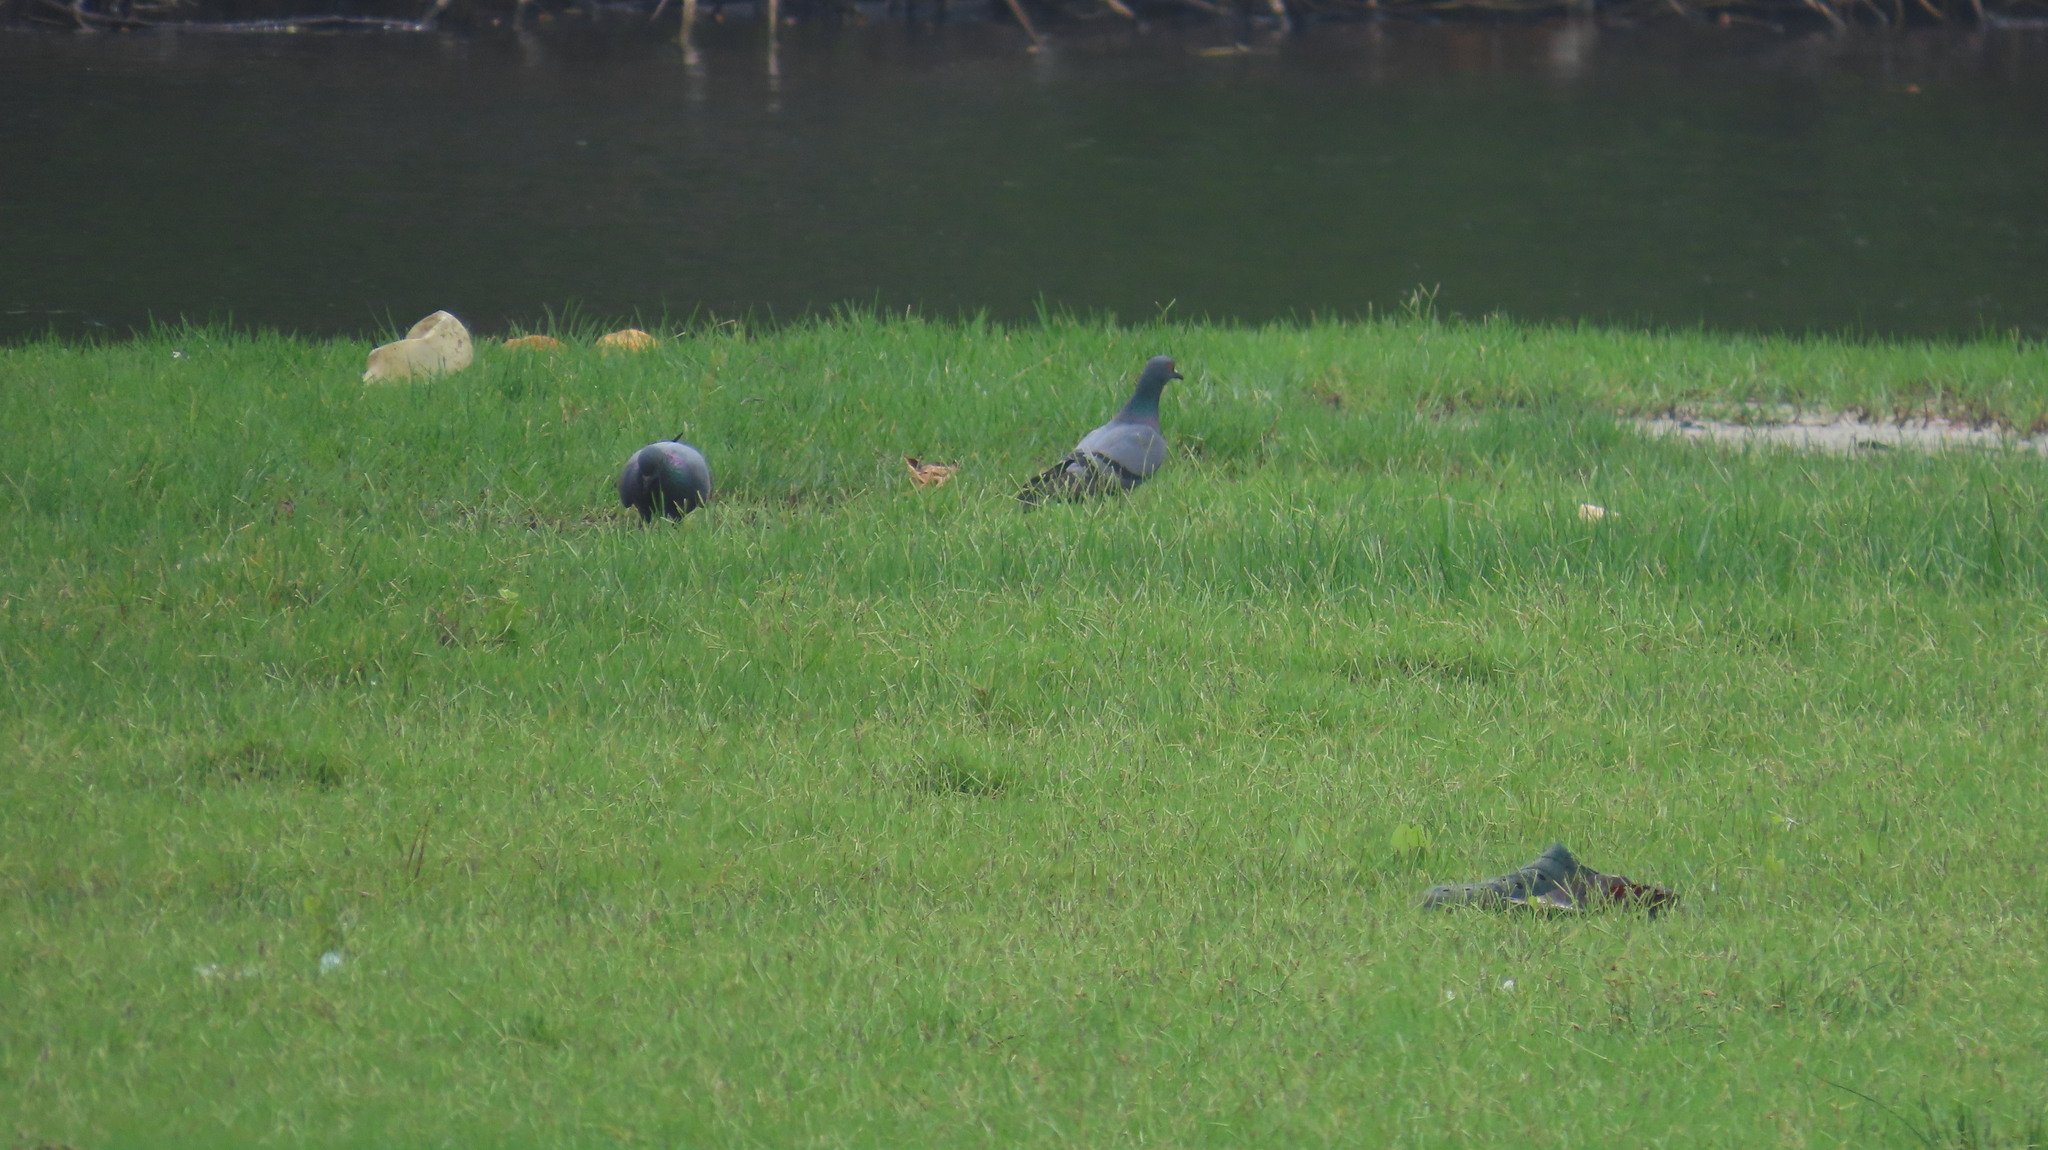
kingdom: Animalia
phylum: Chordata
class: Aves
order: Columbiformes
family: Columbidae
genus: Columba
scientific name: Columba livia
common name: Rock pigeon
